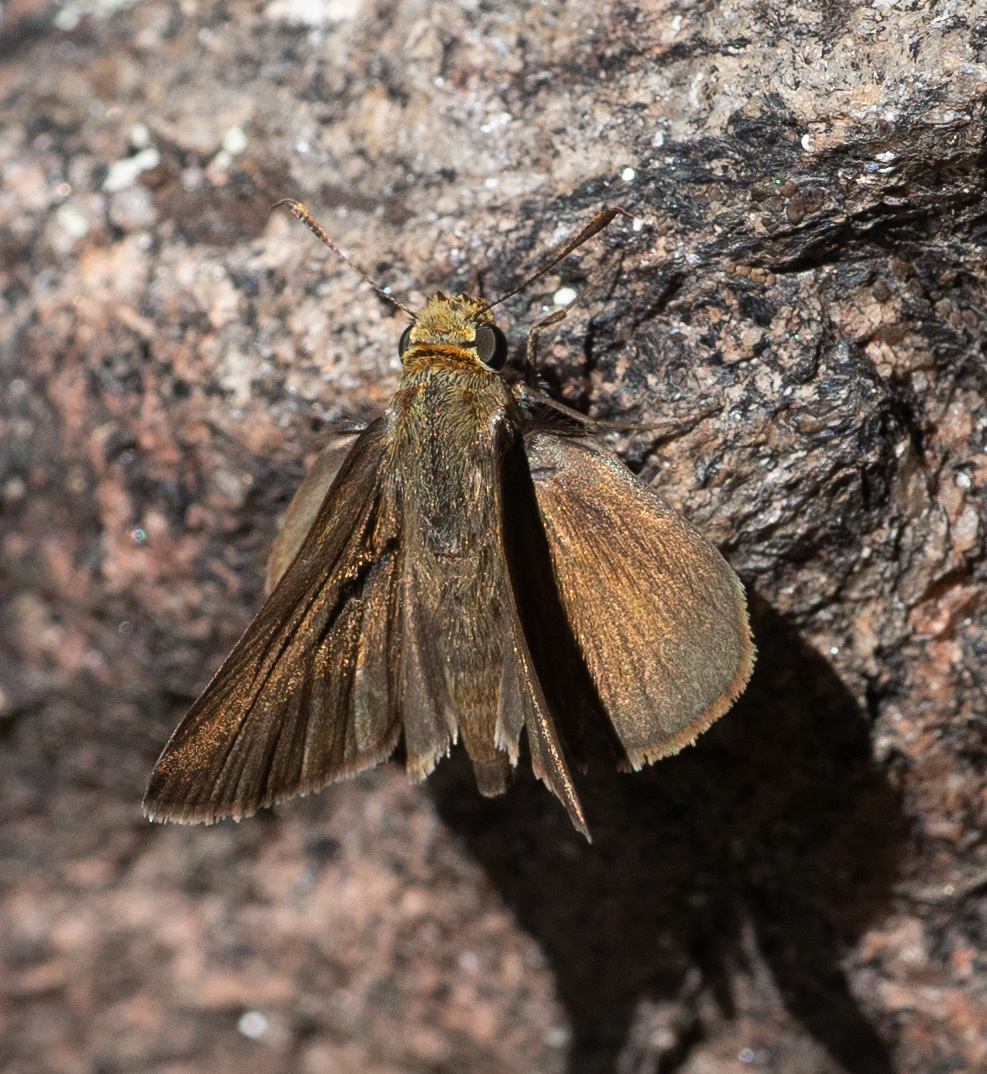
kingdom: Animalia
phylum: Arthropoda
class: Insecta
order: Lepidoptera
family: Hesperiidae
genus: Euphyes
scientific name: Euphyes vestris
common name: Dun skipper
